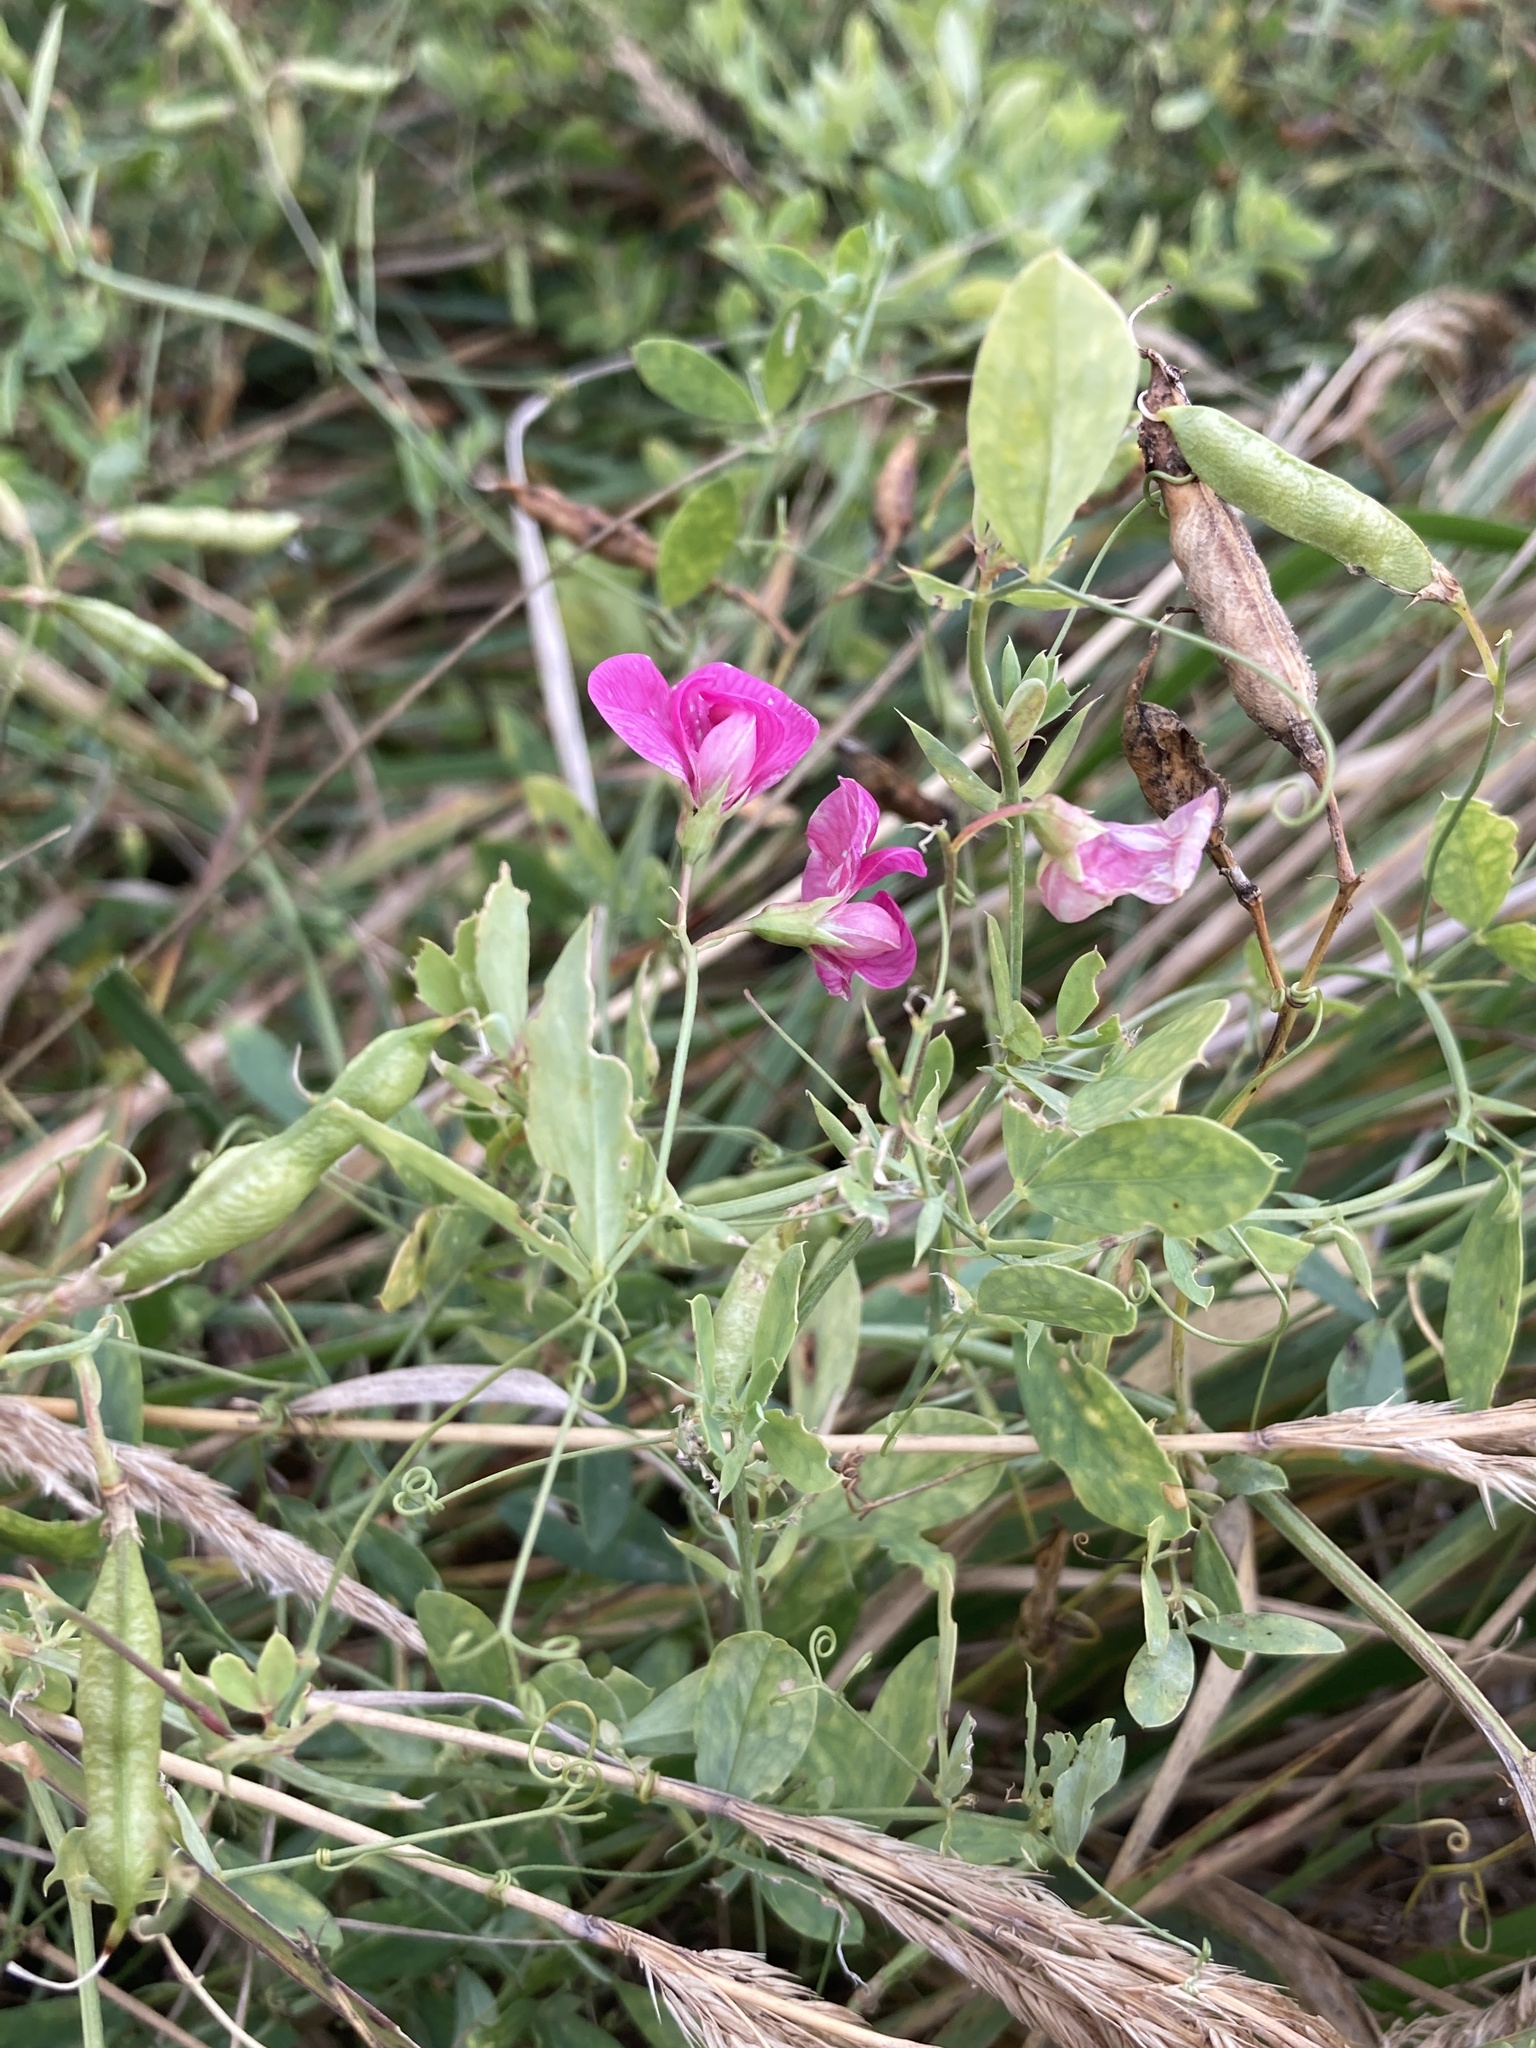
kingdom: Plantae
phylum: Tracheophyta
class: Magnoliopsida
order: Fabales
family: Fabaceae
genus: Lathyrus
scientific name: Lathyrus tuberosus
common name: Tuberous pea
